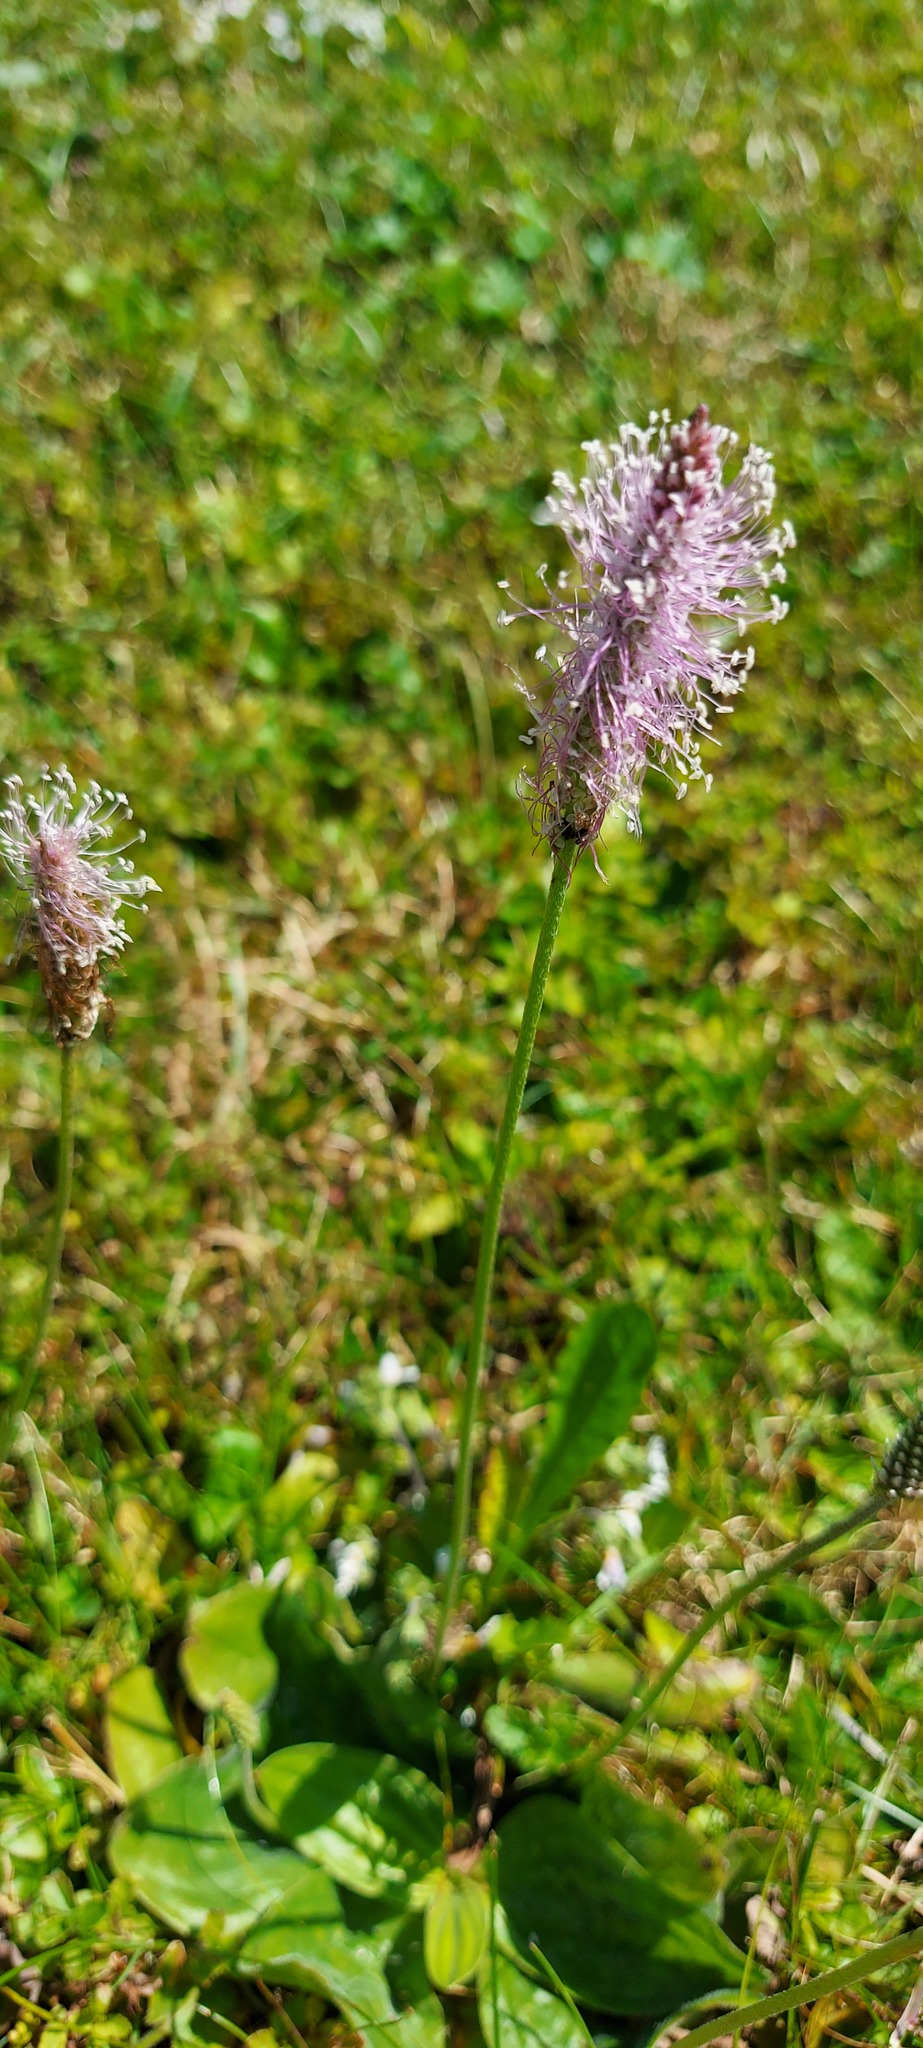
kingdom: Plantae
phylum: Tracheophyta
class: Magnoliopsida
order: Lamiales
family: Plantaginaceae
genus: Plantago
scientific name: Plantago media
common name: Hoary plantain
